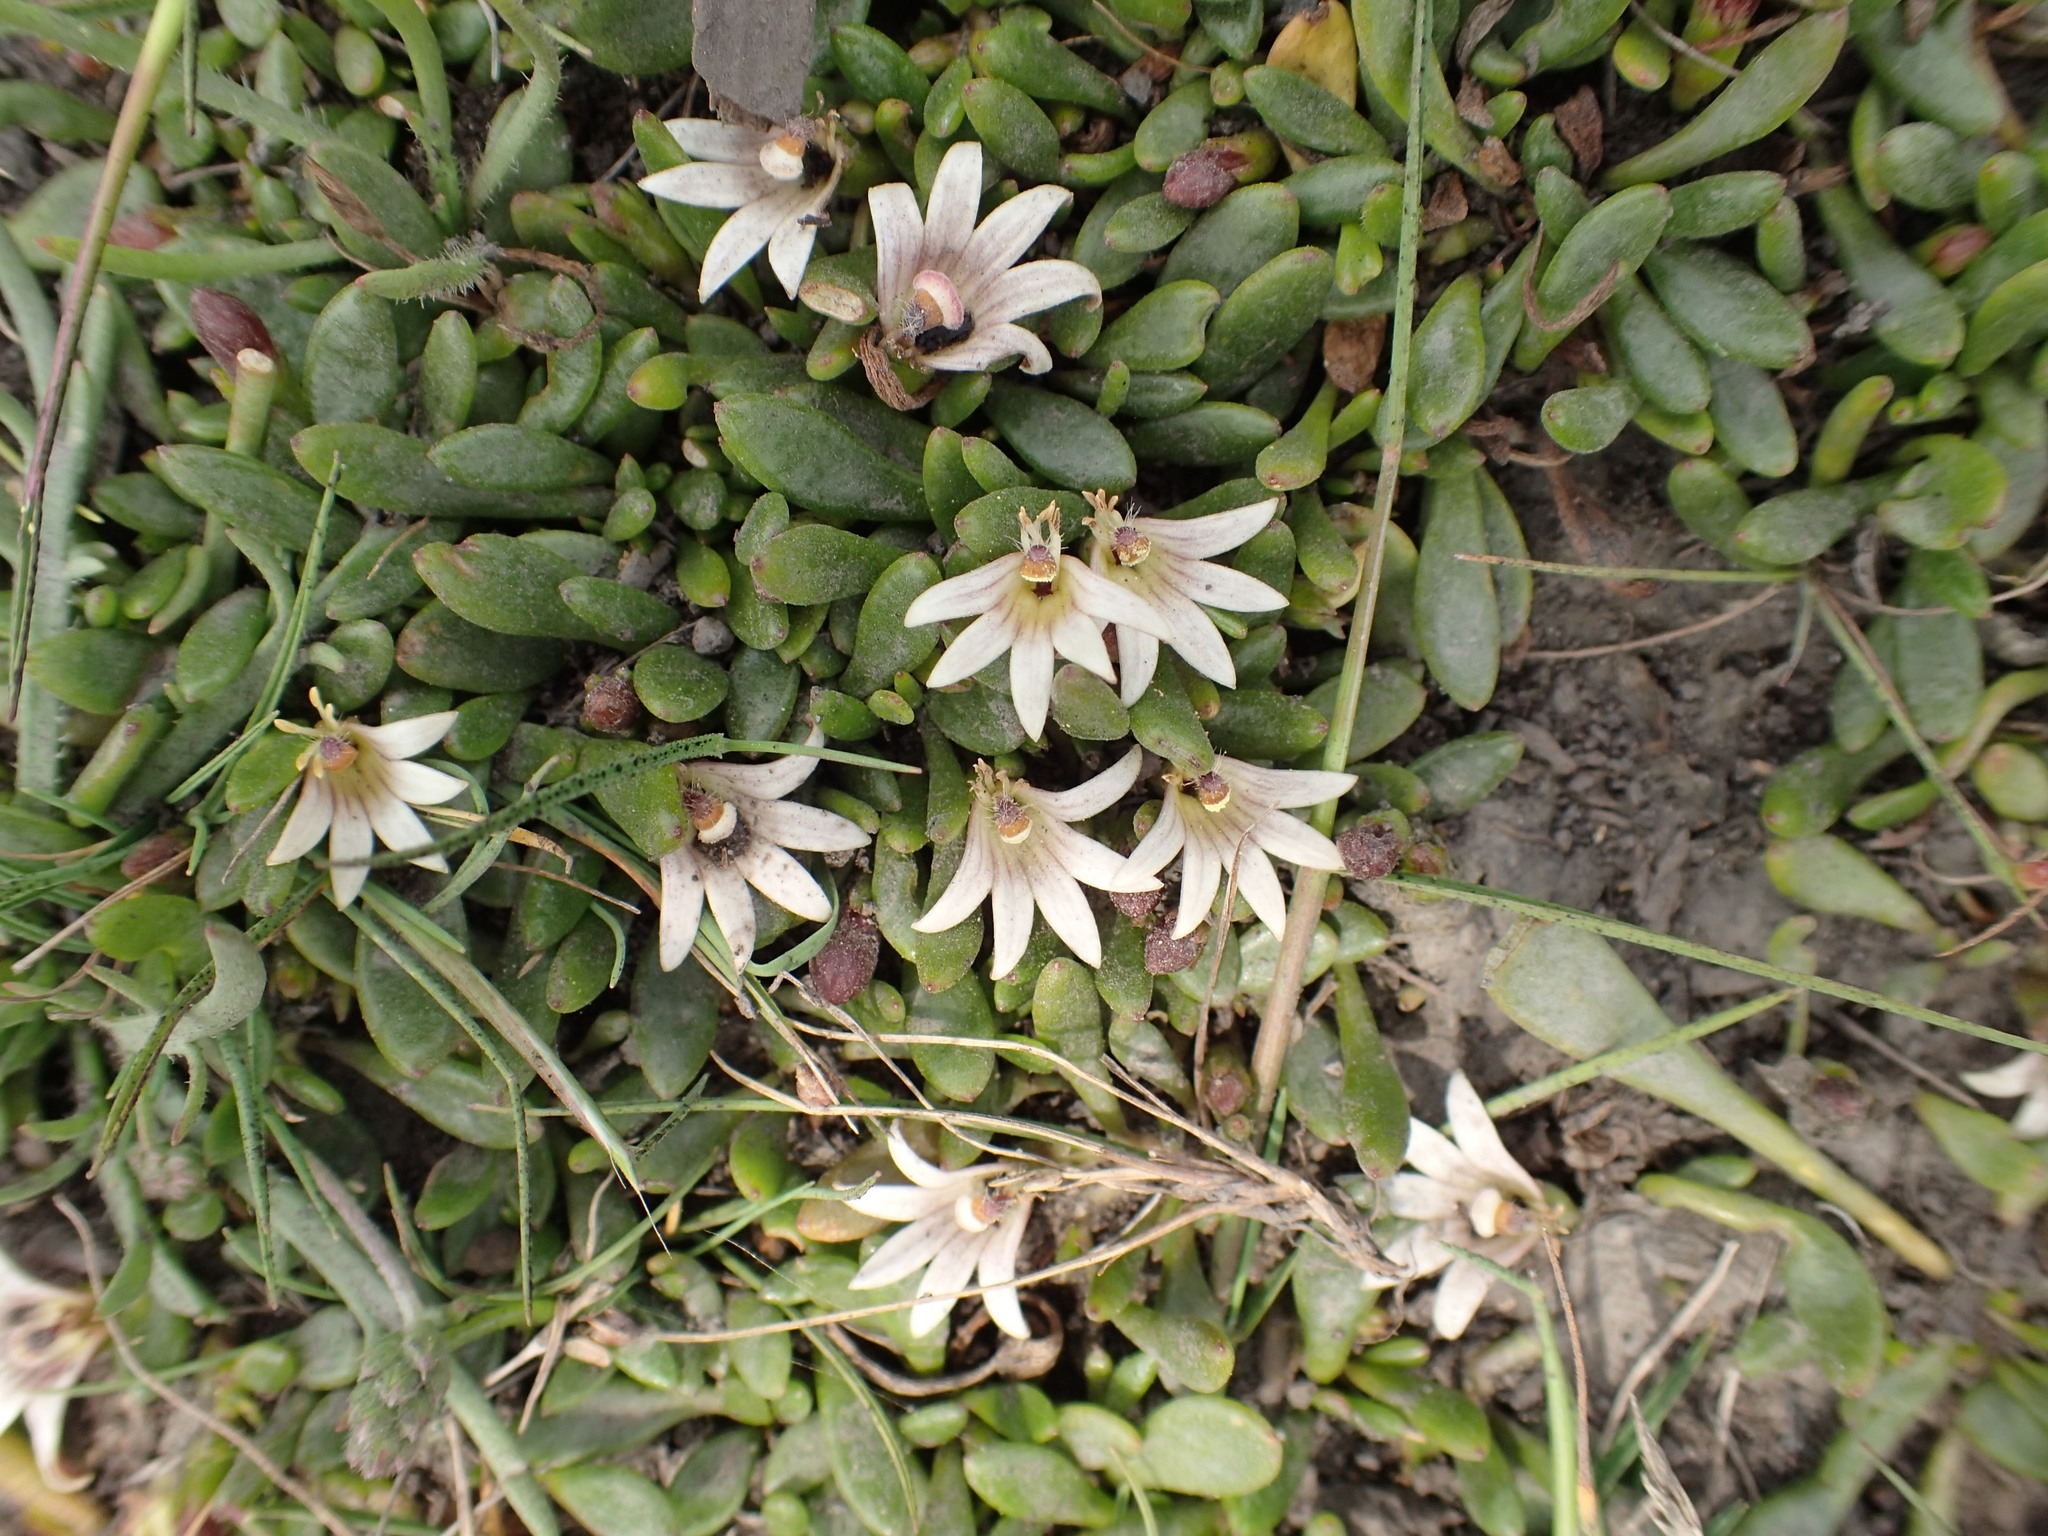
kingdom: Plantae
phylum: Tracheophyta
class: Magnoliopsida
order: Asterales
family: Goodeniaceae
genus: Goodenia
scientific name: Goodenia radicans
